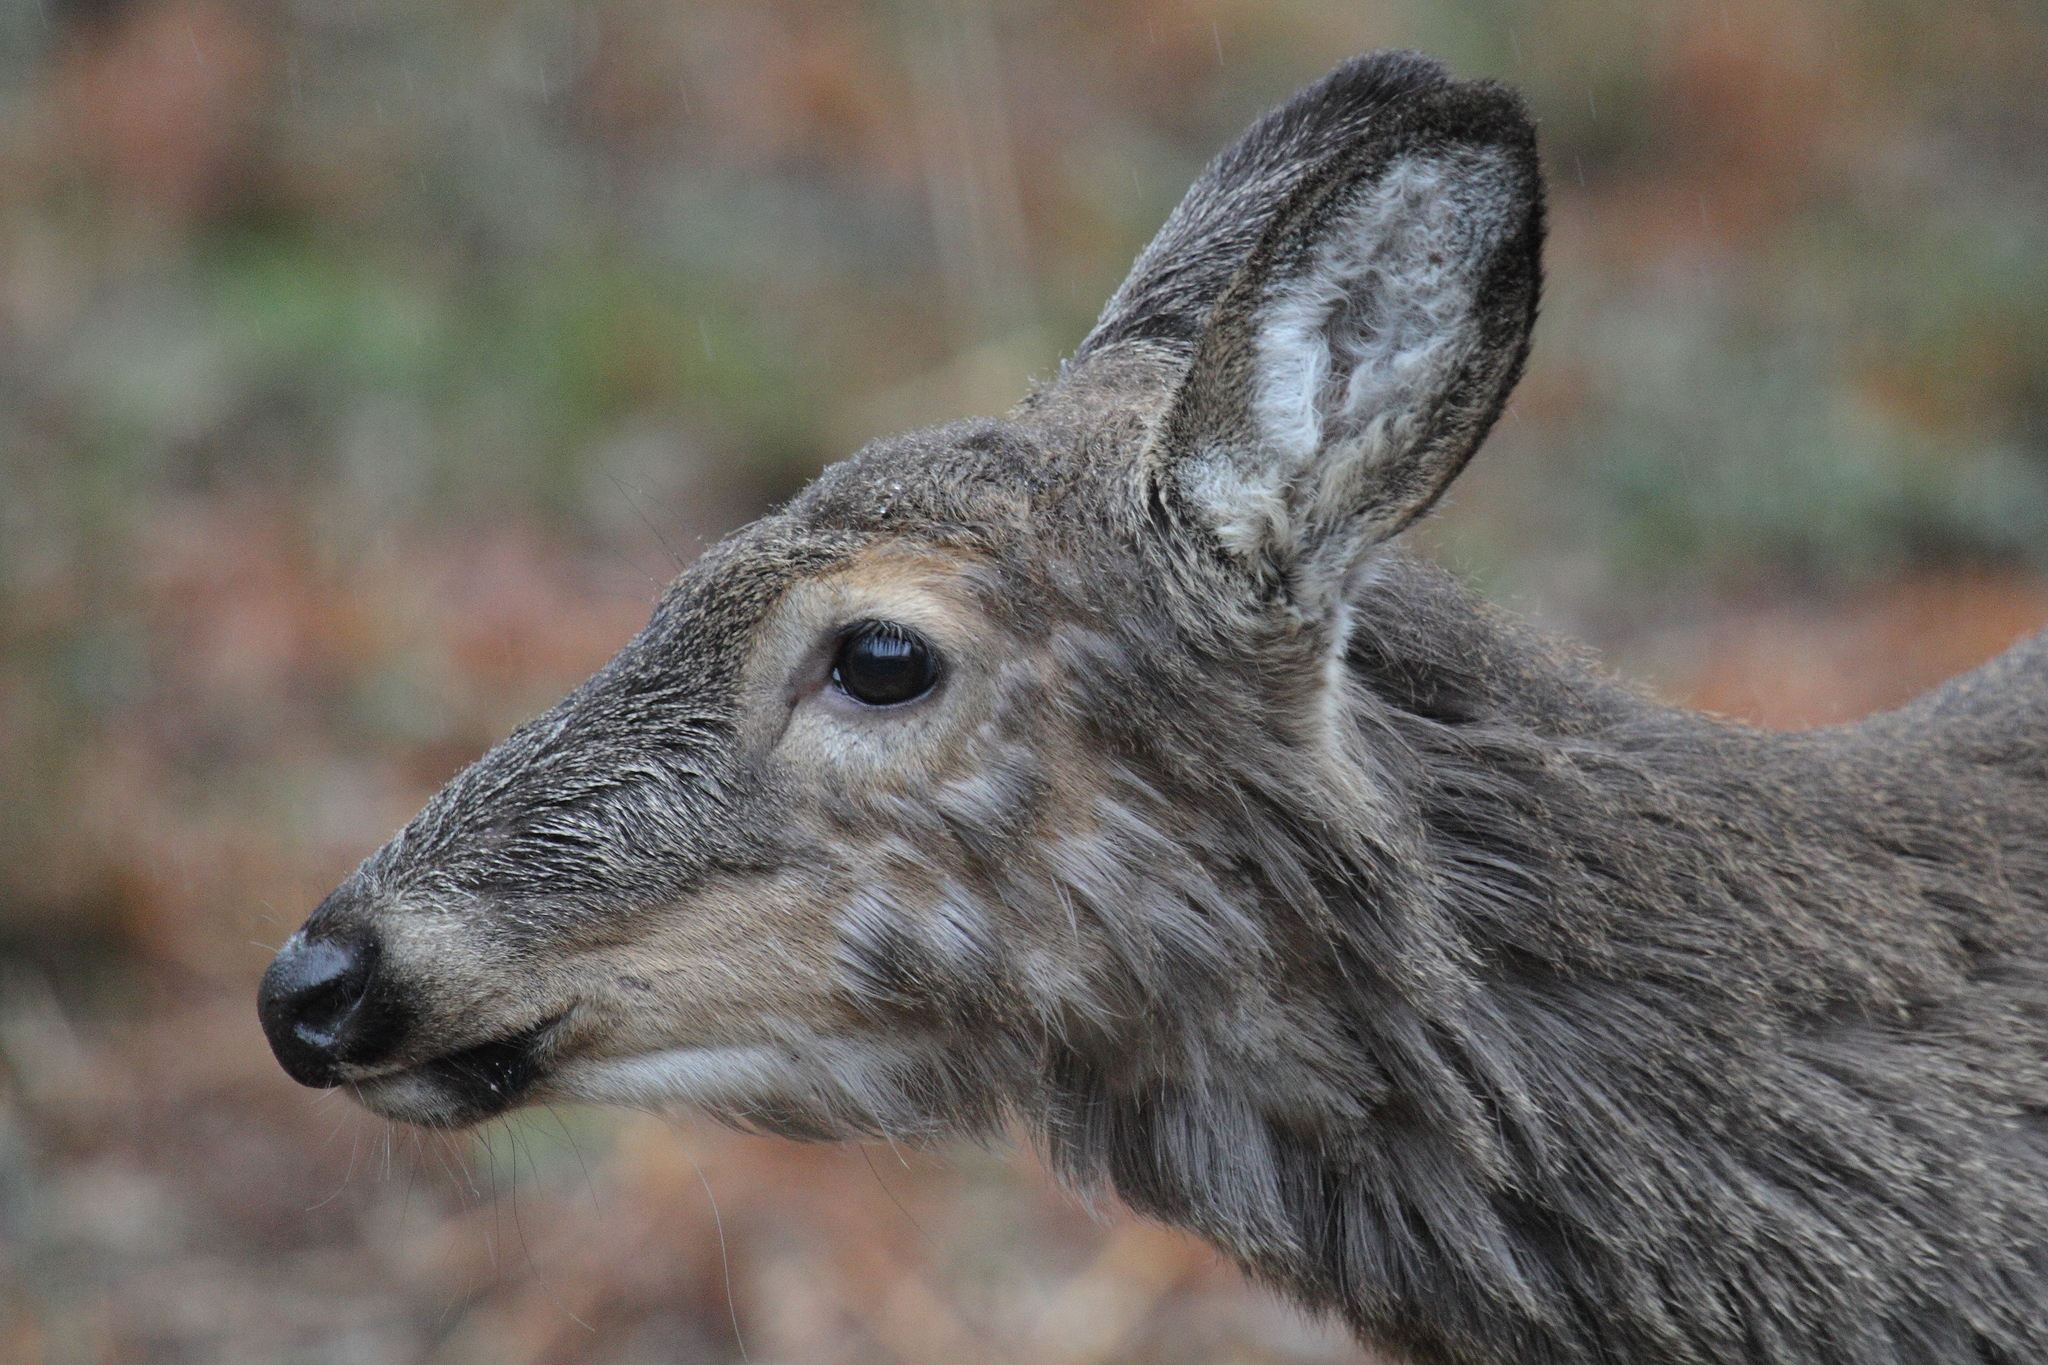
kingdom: Animalia
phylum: Chordata
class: Mammalia
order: Artiodactyla
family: Cervidae
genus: Odocoileus
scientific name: Odocoileus virginianus
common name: White-tailed deer
